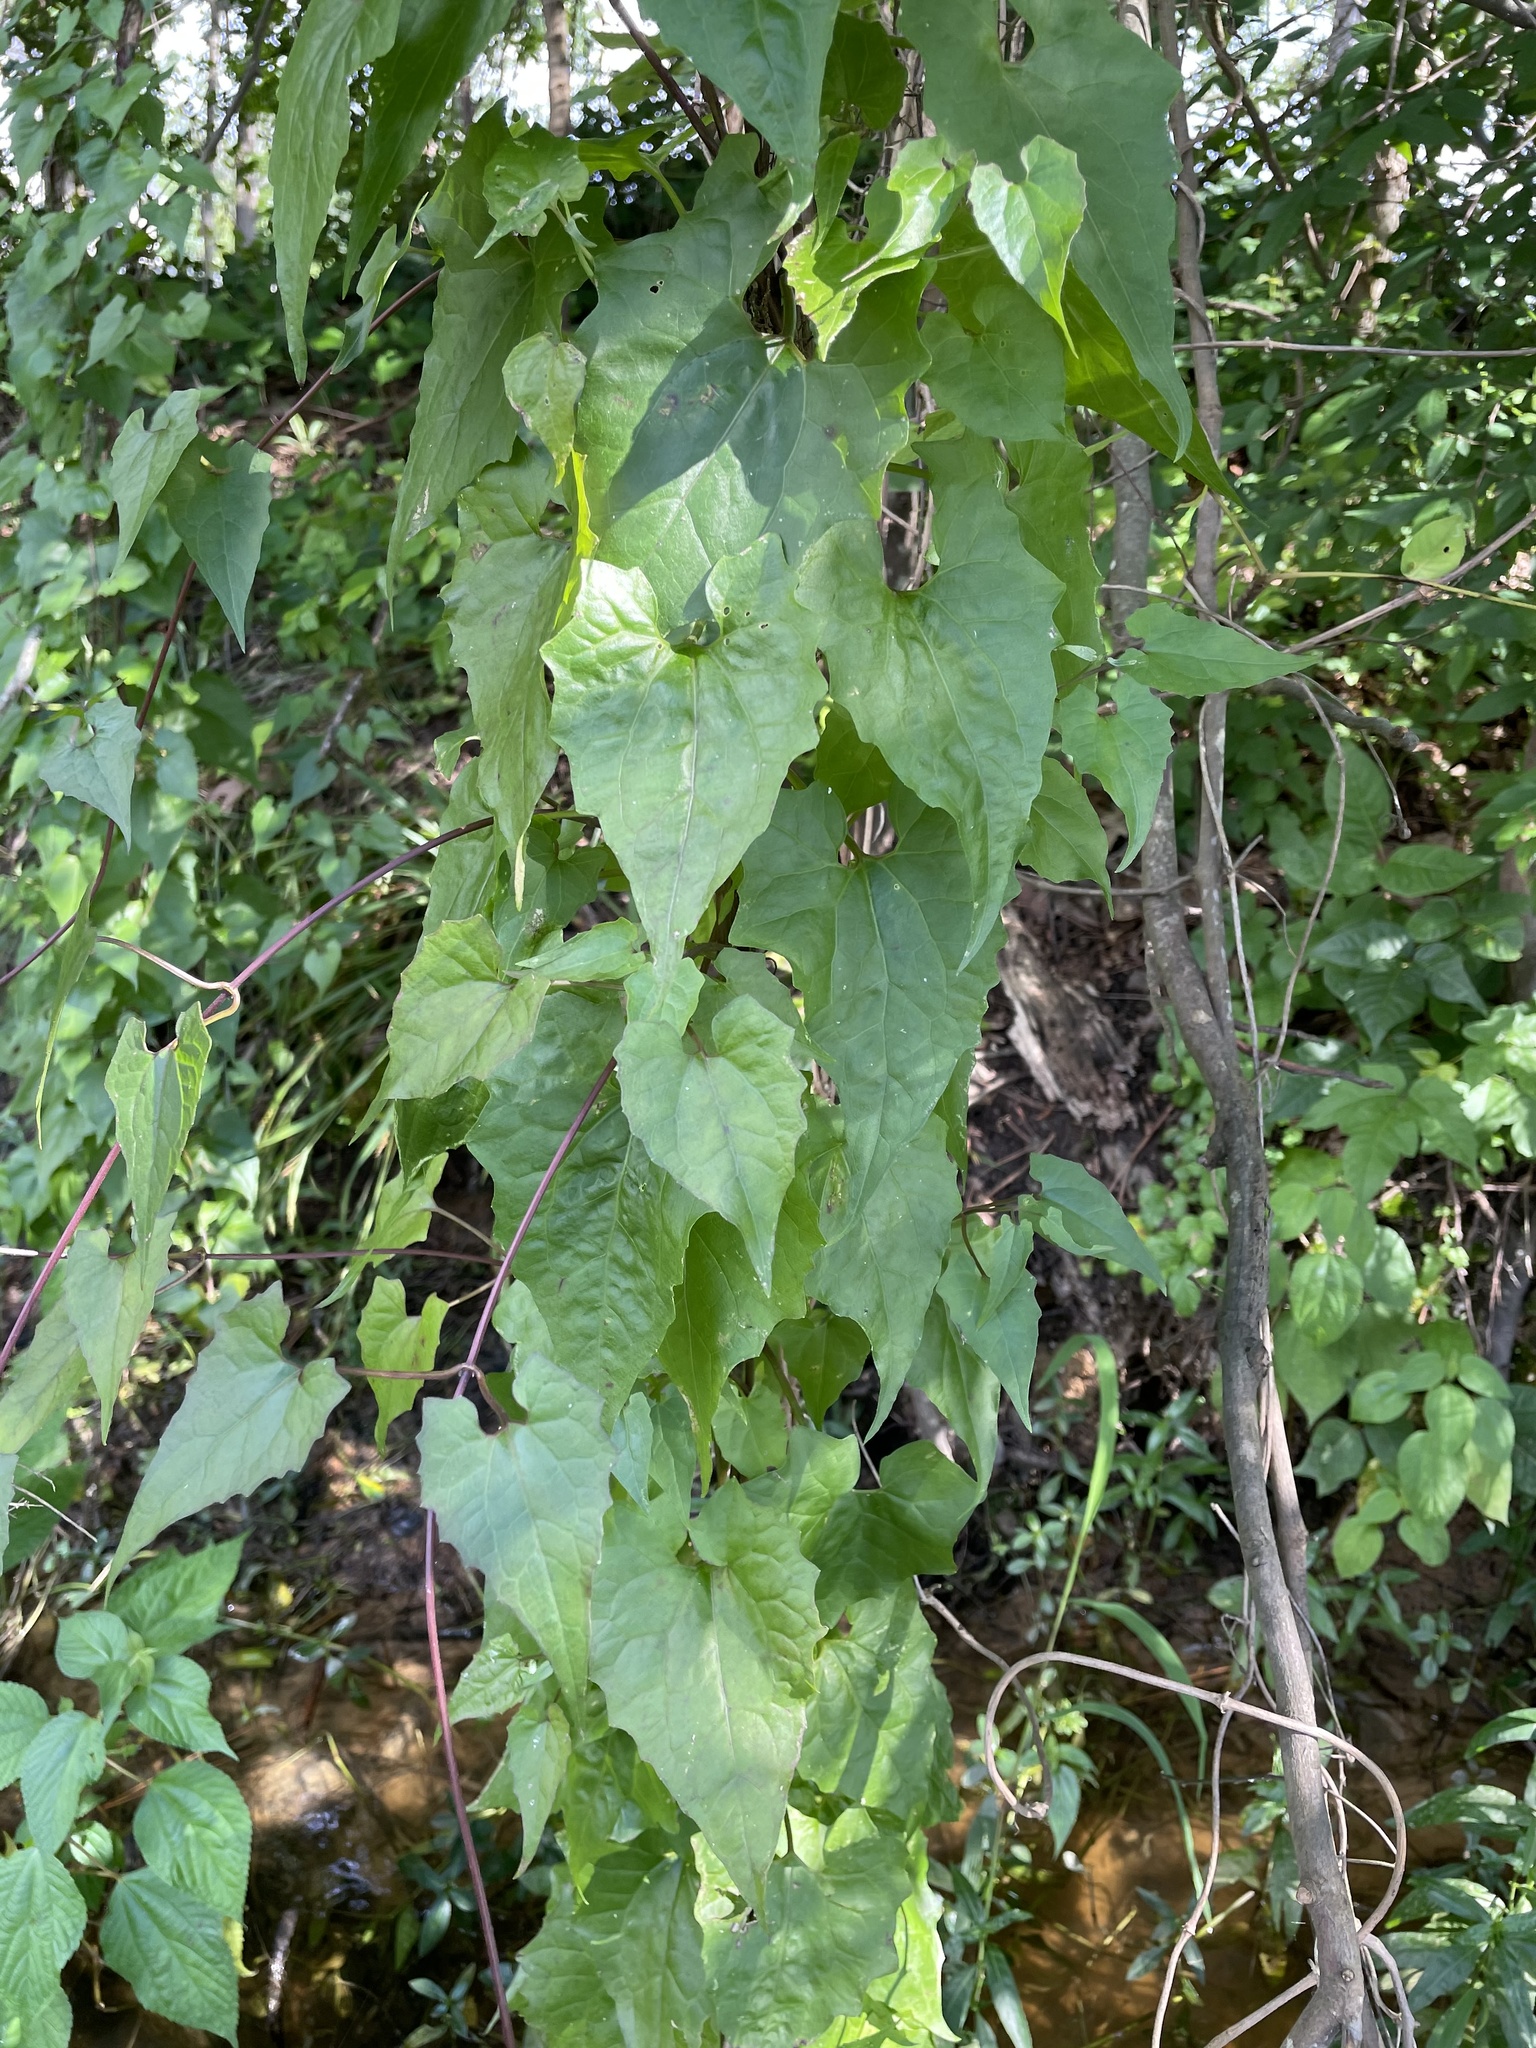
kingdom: Plantae
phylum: Tracheophyta
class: Magnoliopsida
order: Asterales
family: Asteraceae
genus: Mikania
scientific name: Mikania scandens
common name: Climbing hempvine
